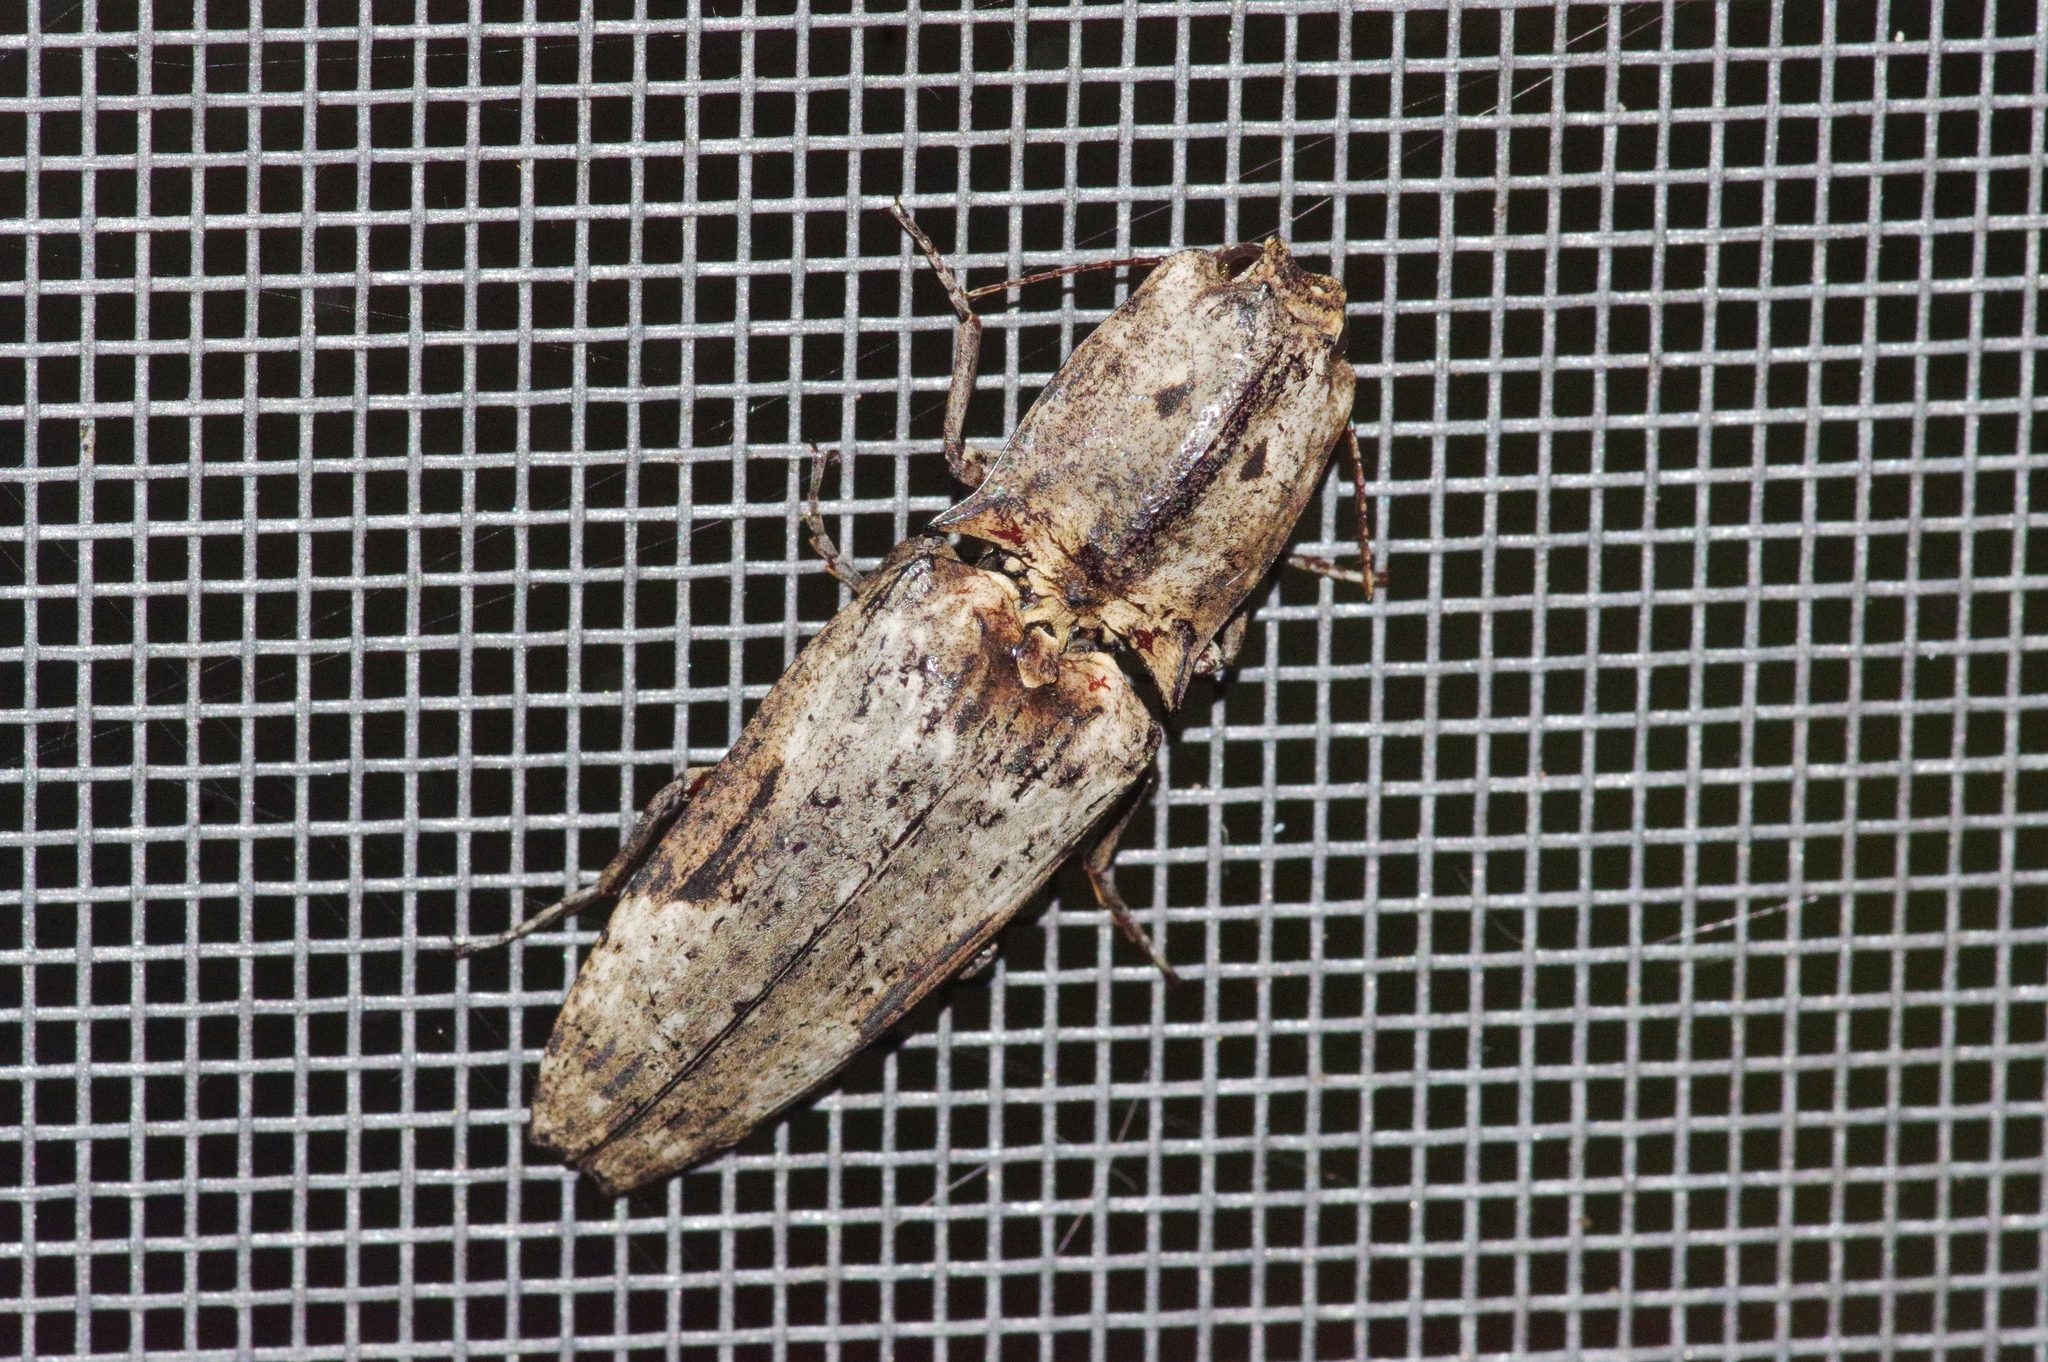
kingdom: Animalia
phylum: Arthropoda
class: Insecta
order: Coleoptera
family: Elateridae
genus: Cryptalaus
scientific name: Cryptalaus larvatus
